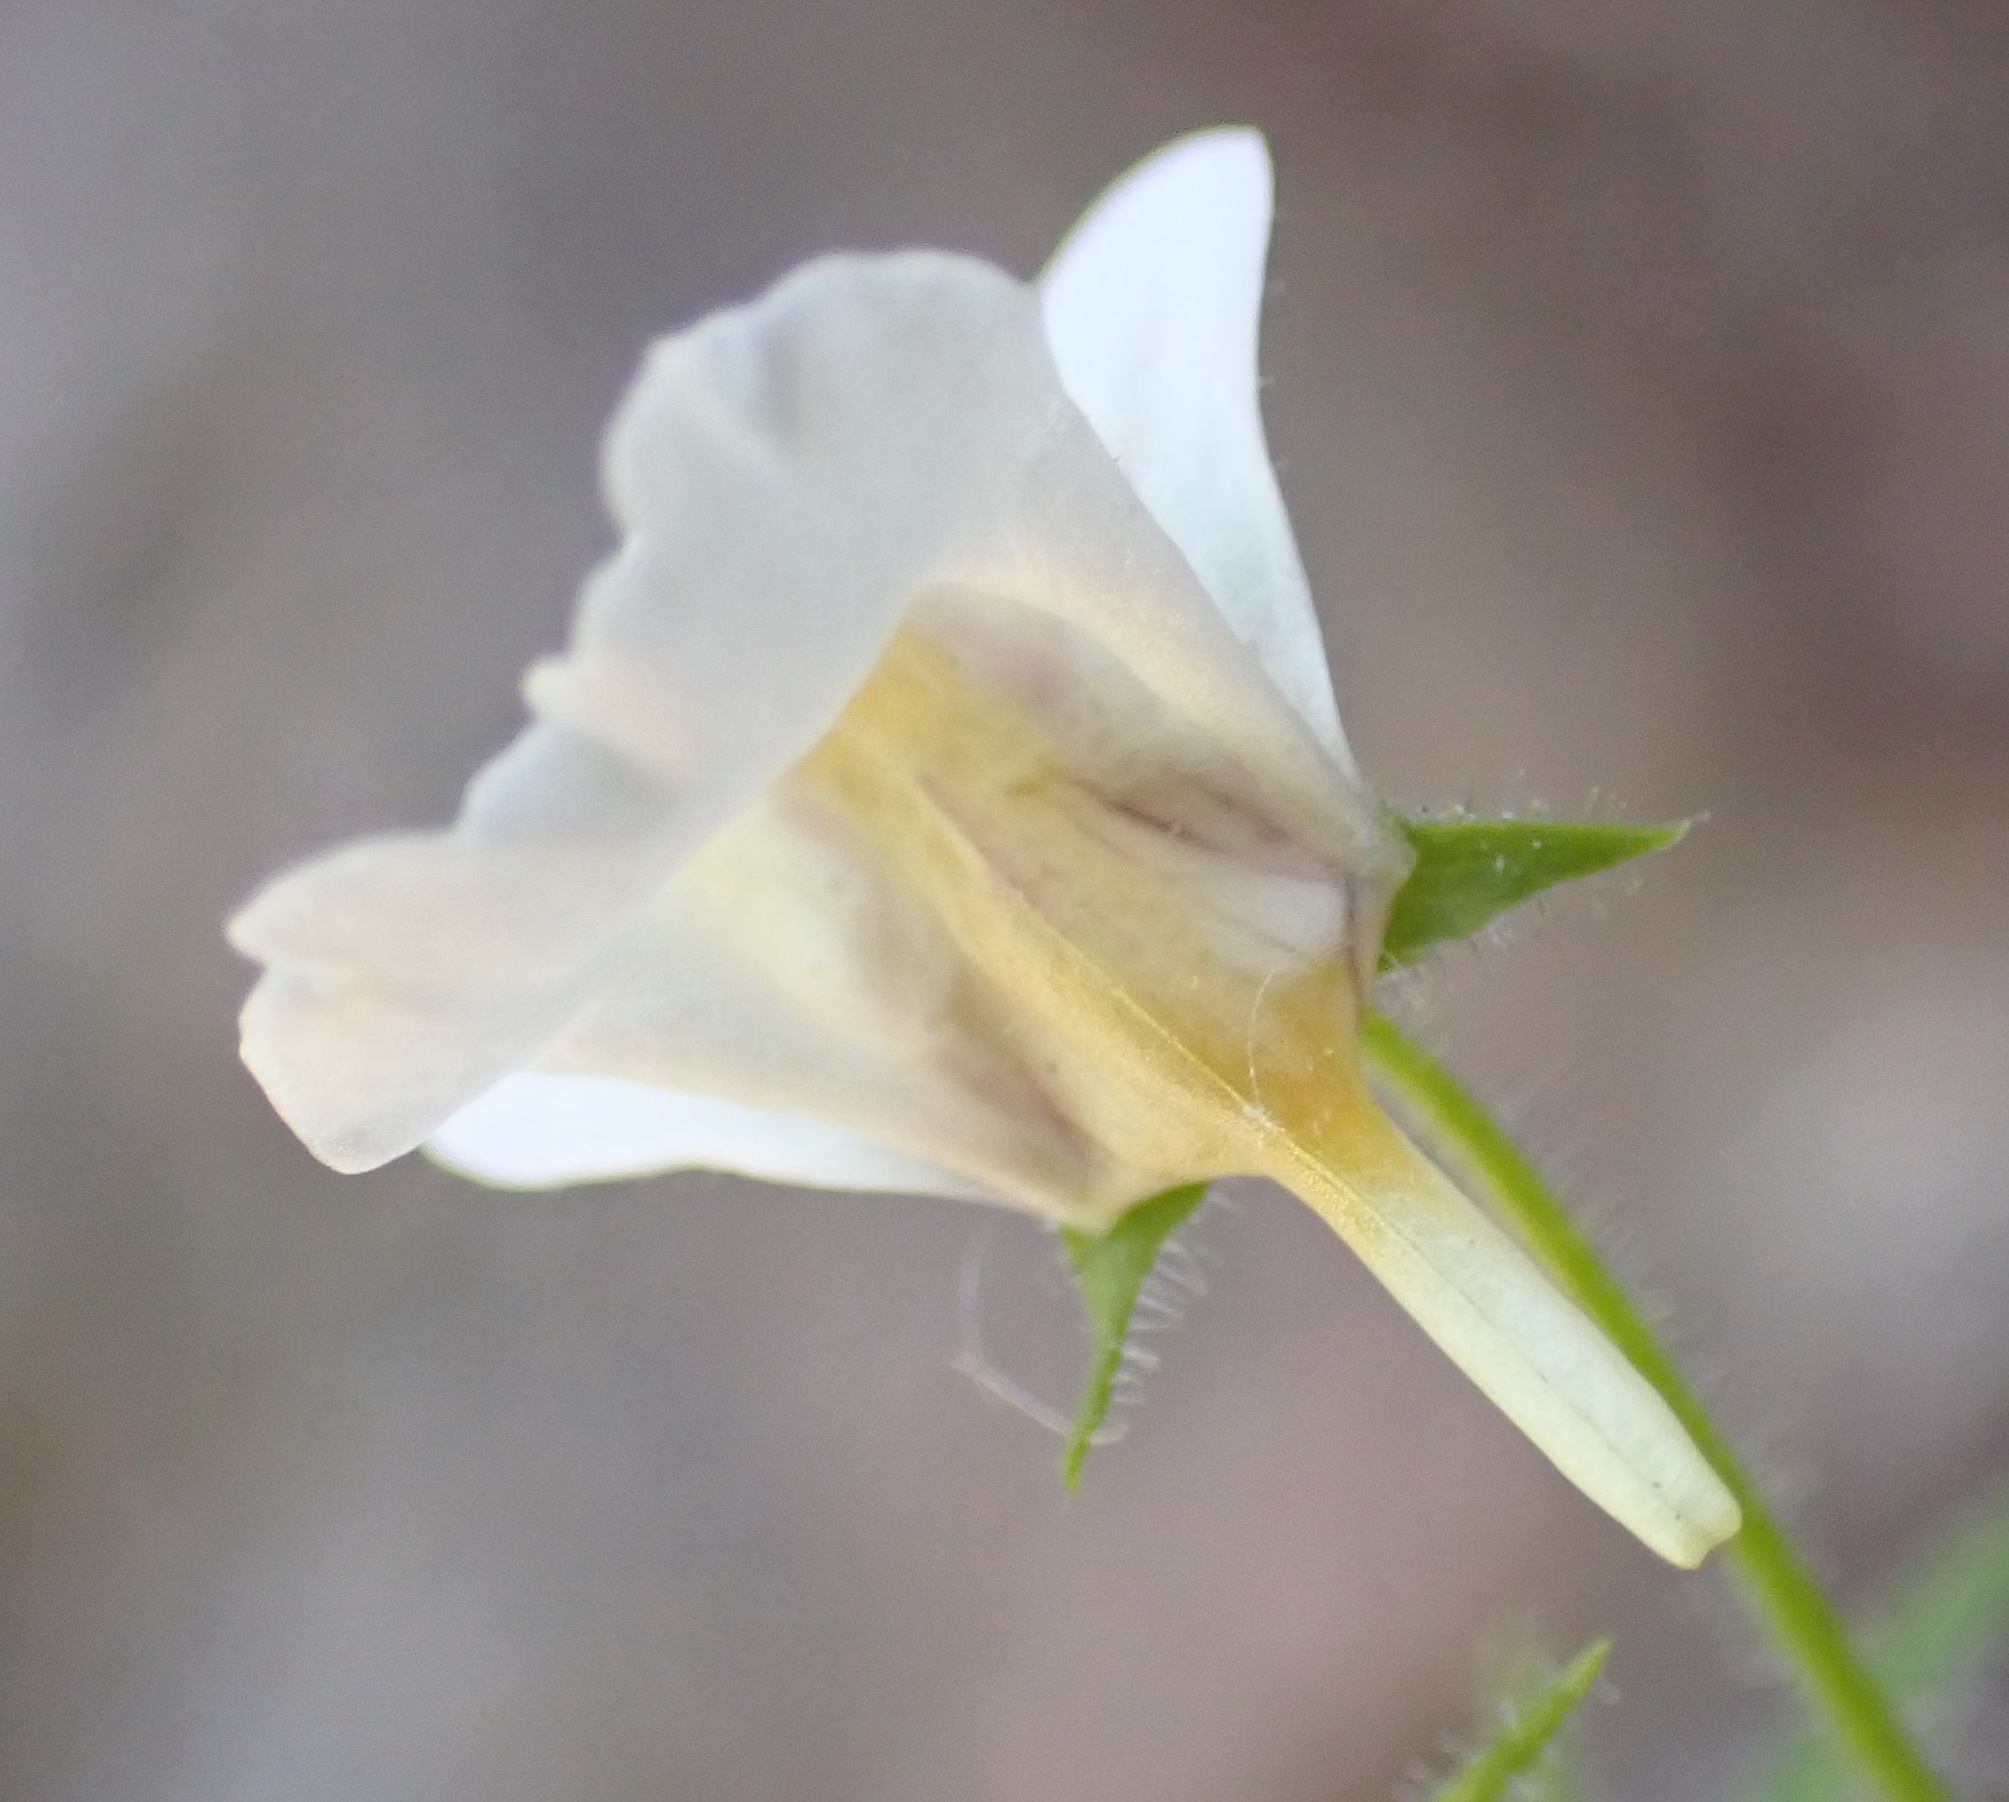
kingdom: Plantae
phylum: Tracheophyta
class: Magnoliopsida
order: Lamiales
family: Scrophulariaceae
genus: Nemesia
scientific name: Nemesia deflexa
